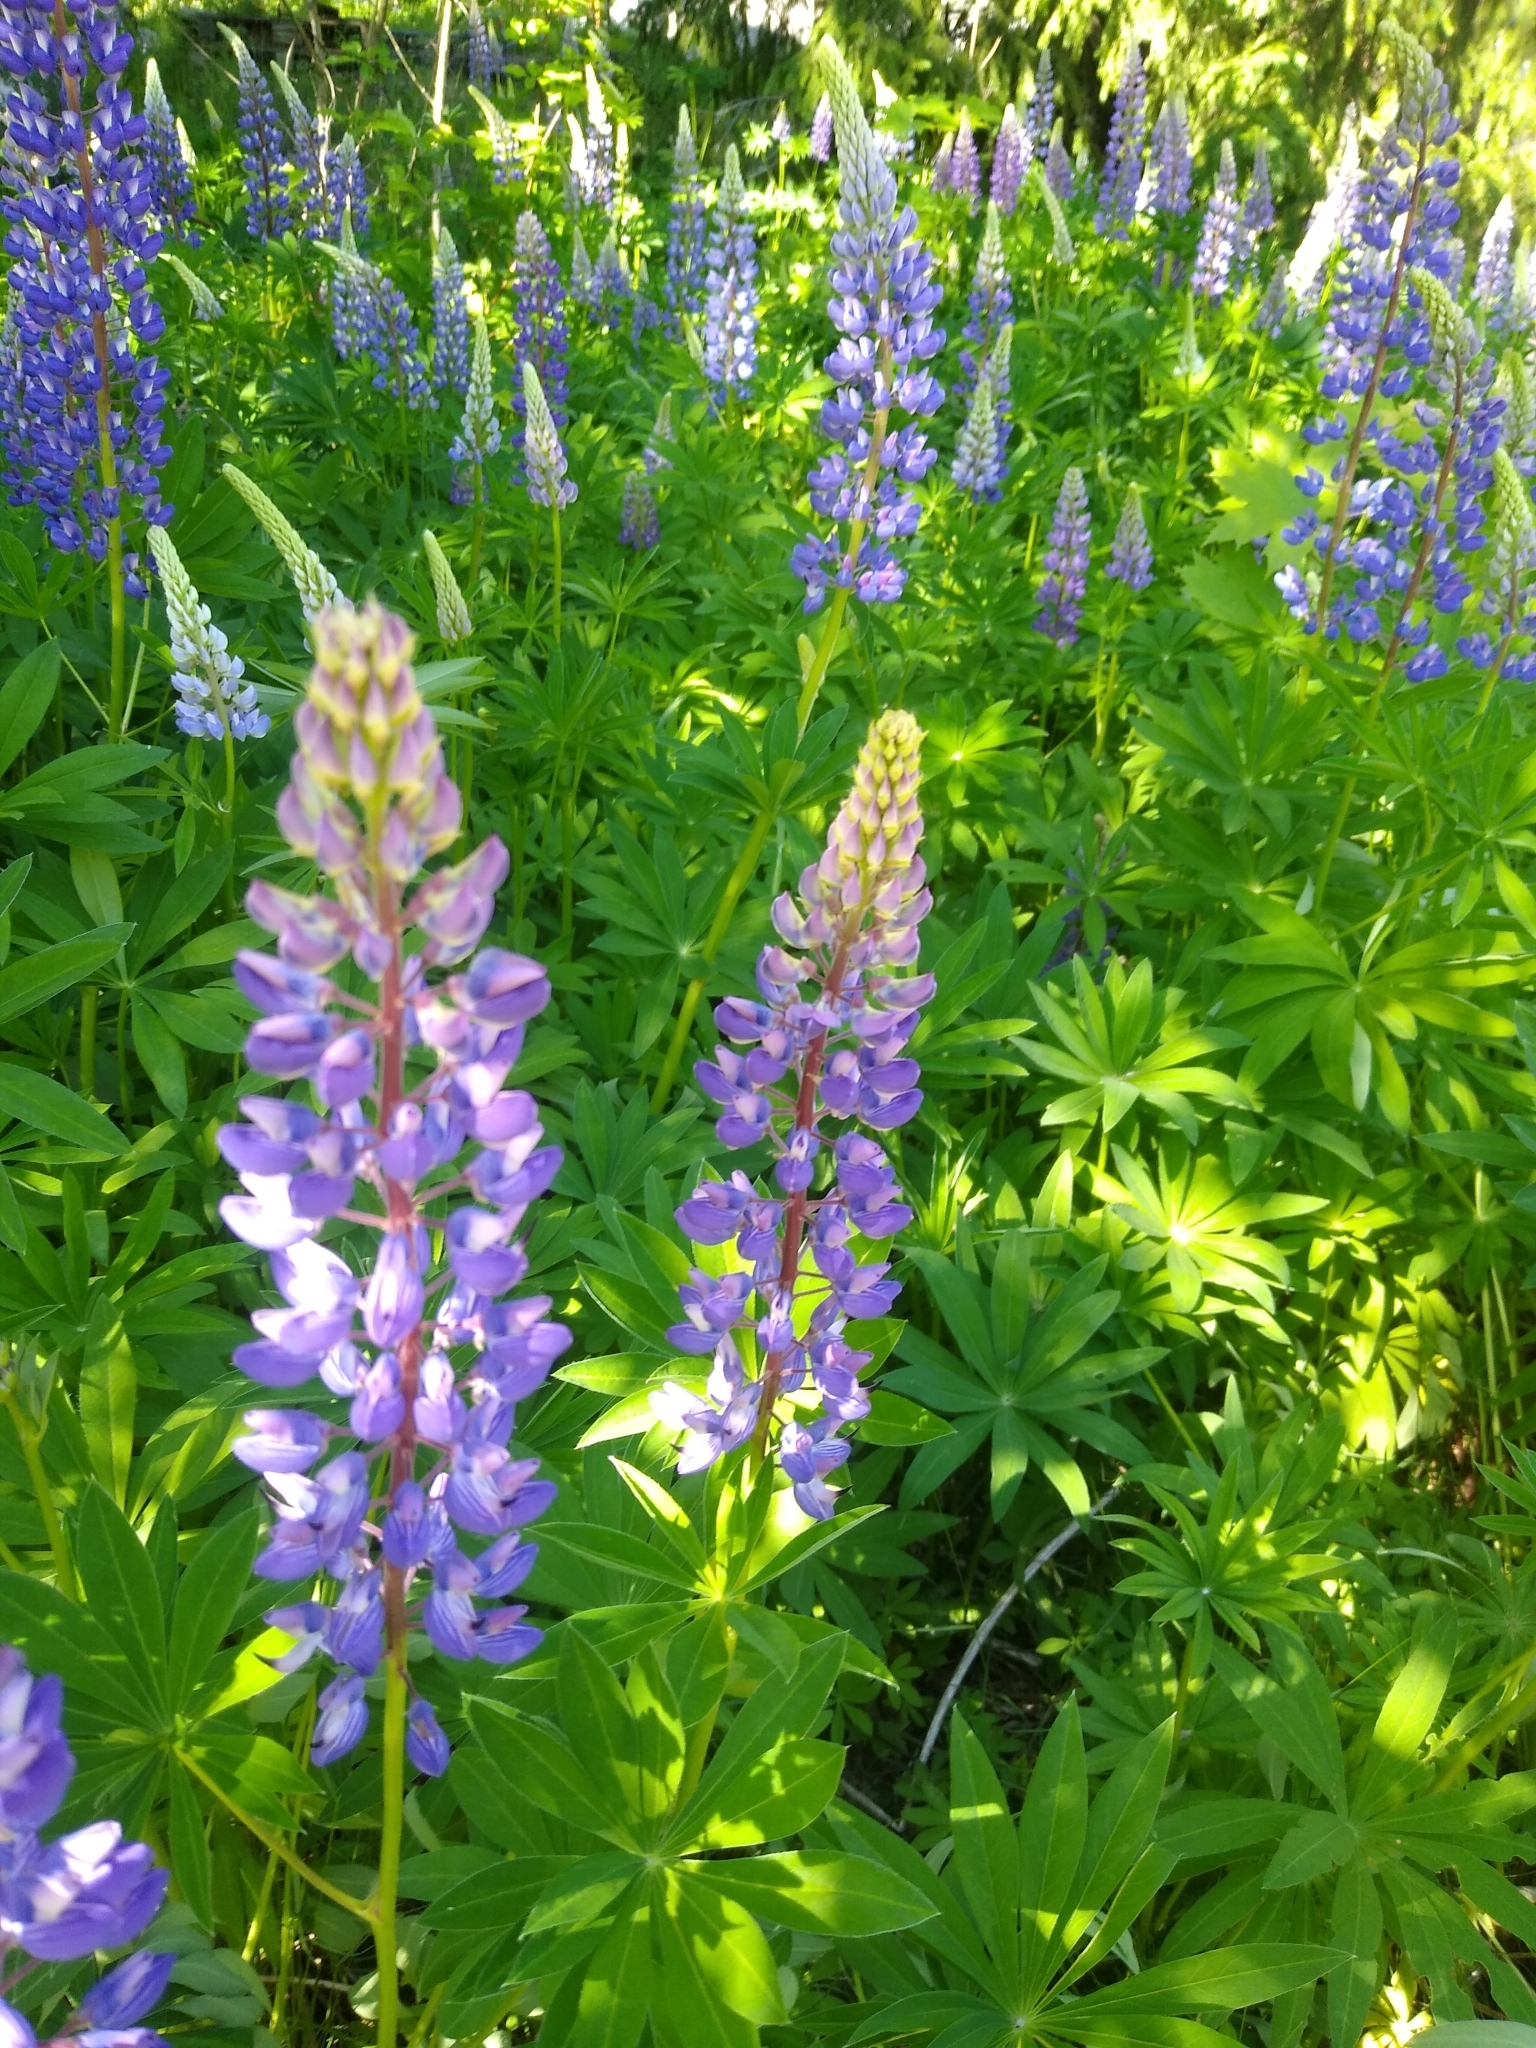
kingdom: Plantae
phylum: Tracheophyta
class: Magnoliopsida
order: Fabales
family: Fabaceae
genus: Lupinus
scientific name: Lupinus polyphyllus
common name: Garden lupin
